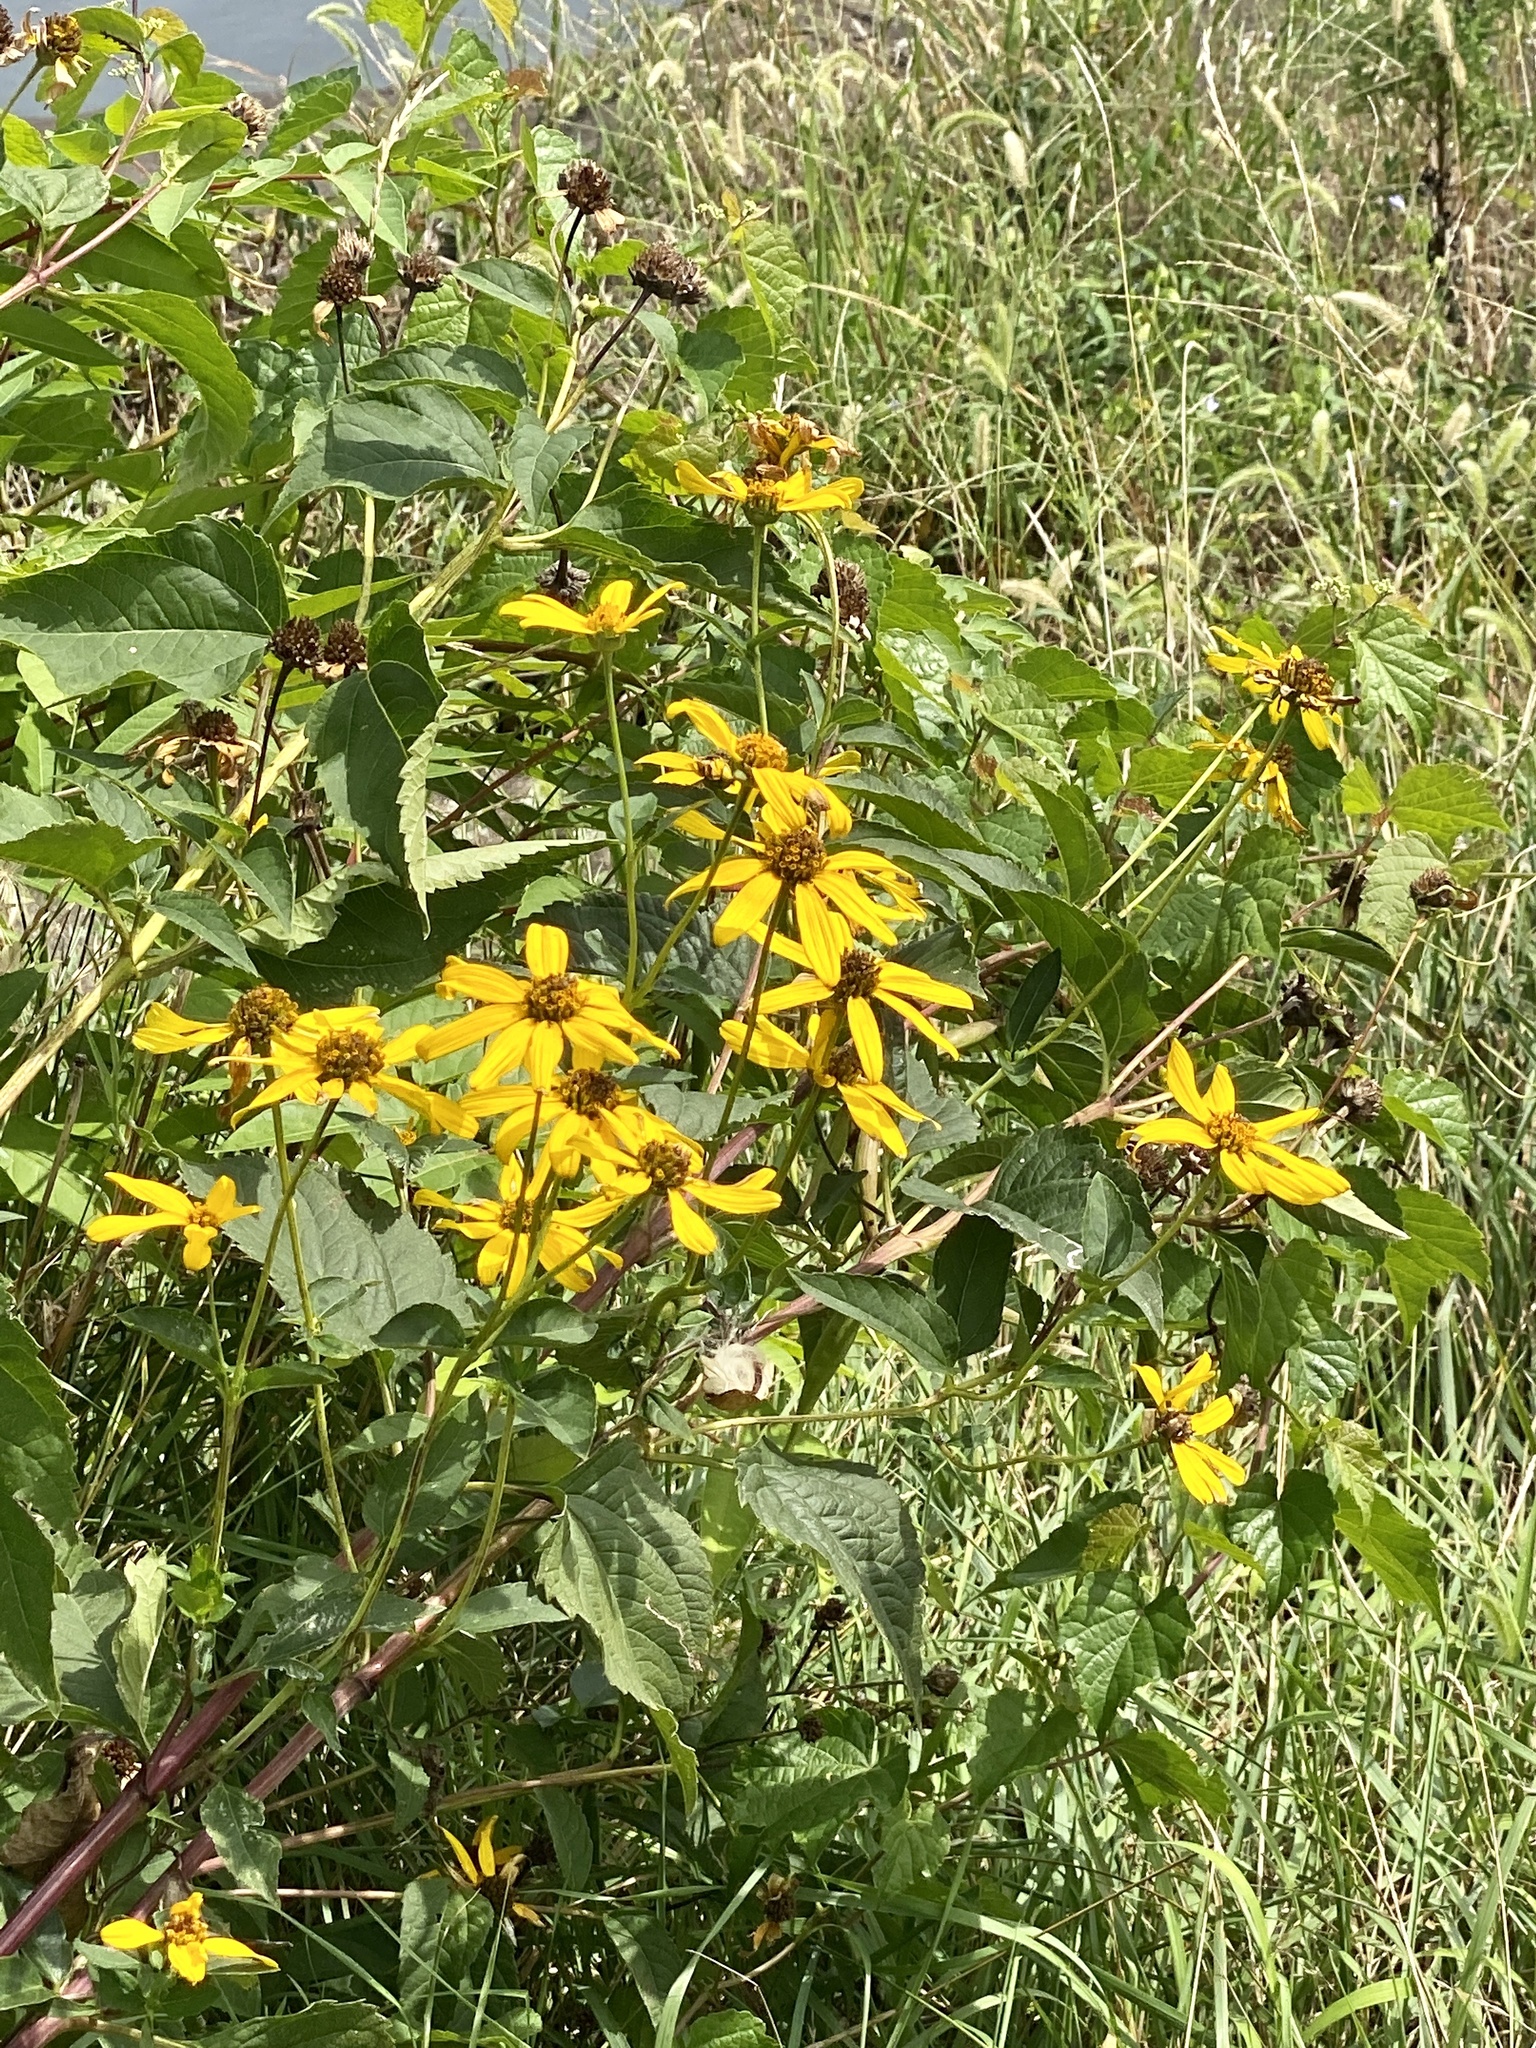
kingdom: Plantae
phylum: Tracheophyta
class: Magnoliopsida
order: Asterales
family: Asteraceae
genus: Heliopsis
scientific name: Heliopsis helianthoides
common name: False sunflower
